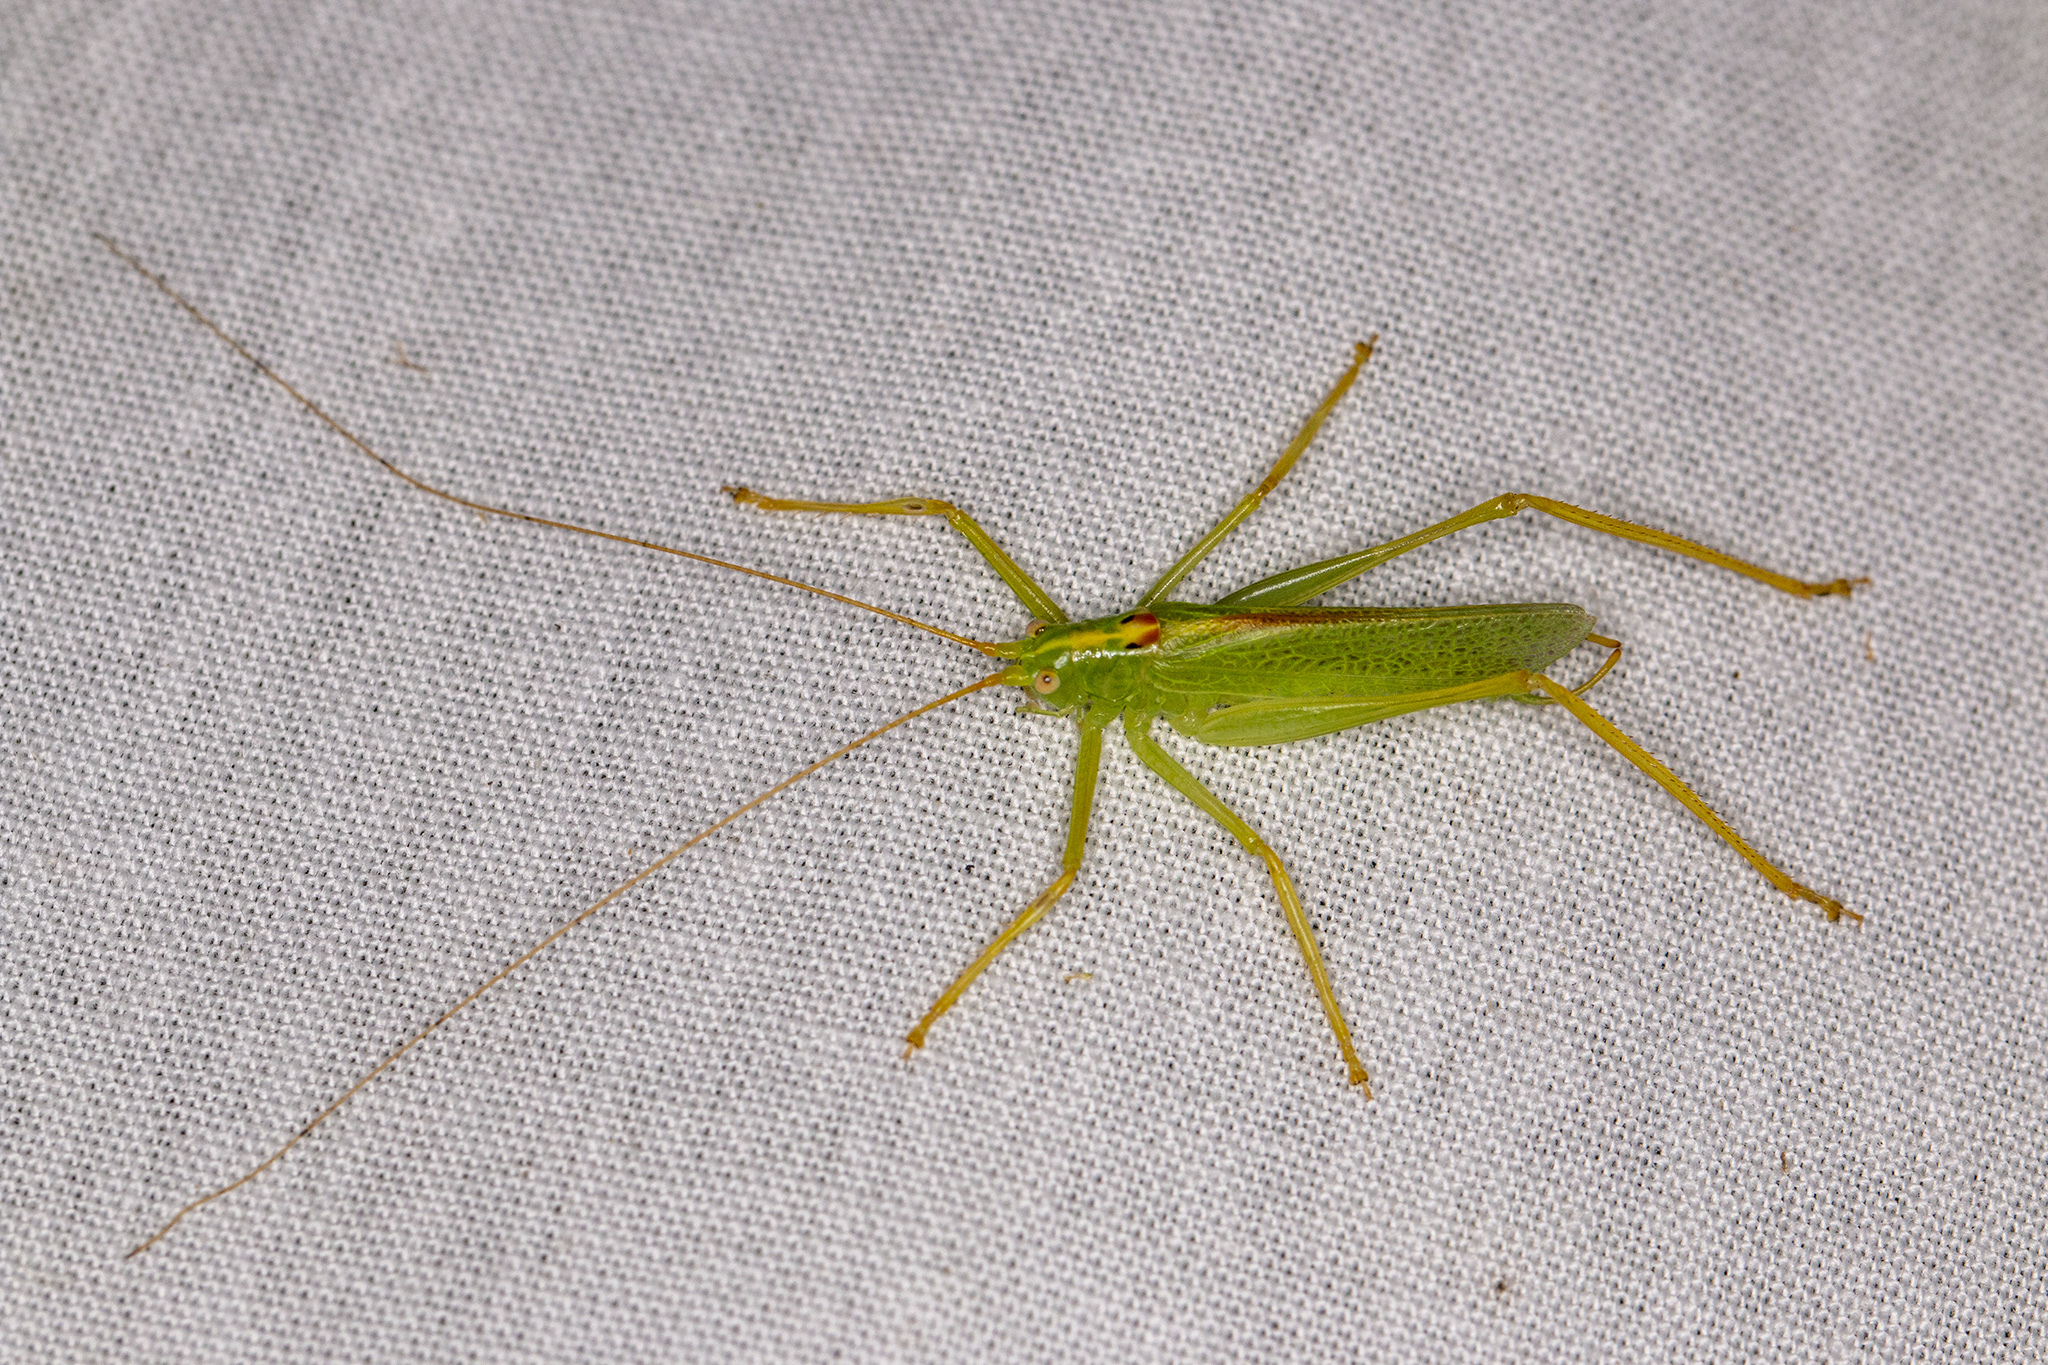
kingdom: Animalia
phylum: Arthropoda
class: Insecta
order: Orthoptera
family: Tettigoniidae
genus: Meconema
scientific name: Meconema thalassinum
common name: Oak bush-cricket
